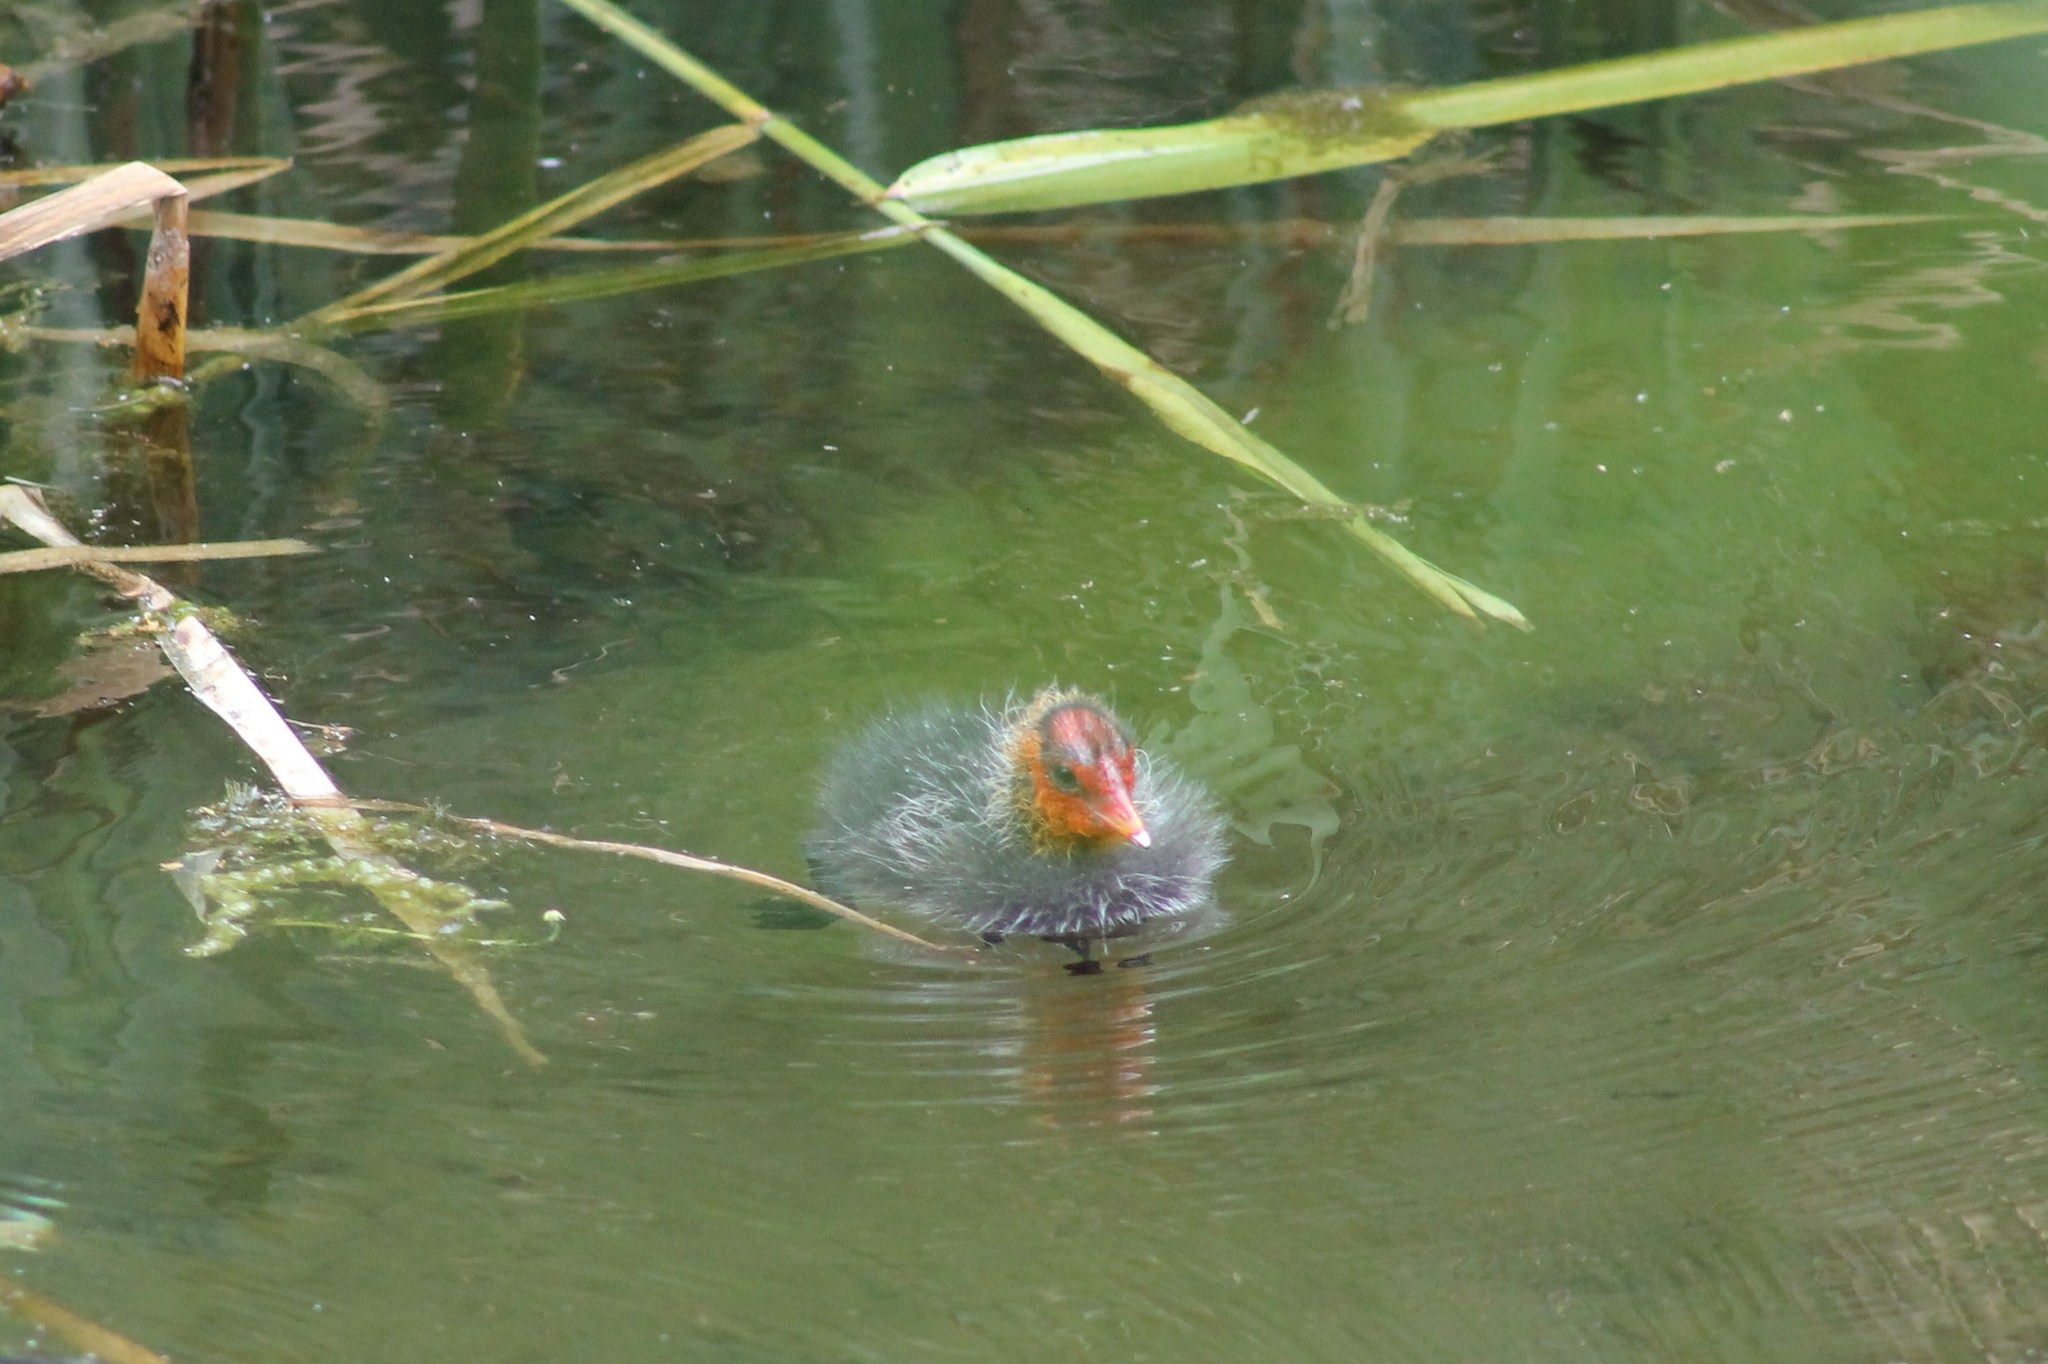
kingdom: Animalia
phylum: Chordata
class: Aves
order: Gruiformes
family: Rallidae
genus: Fulica
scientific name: Fulica atra
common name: Eurasian coot
